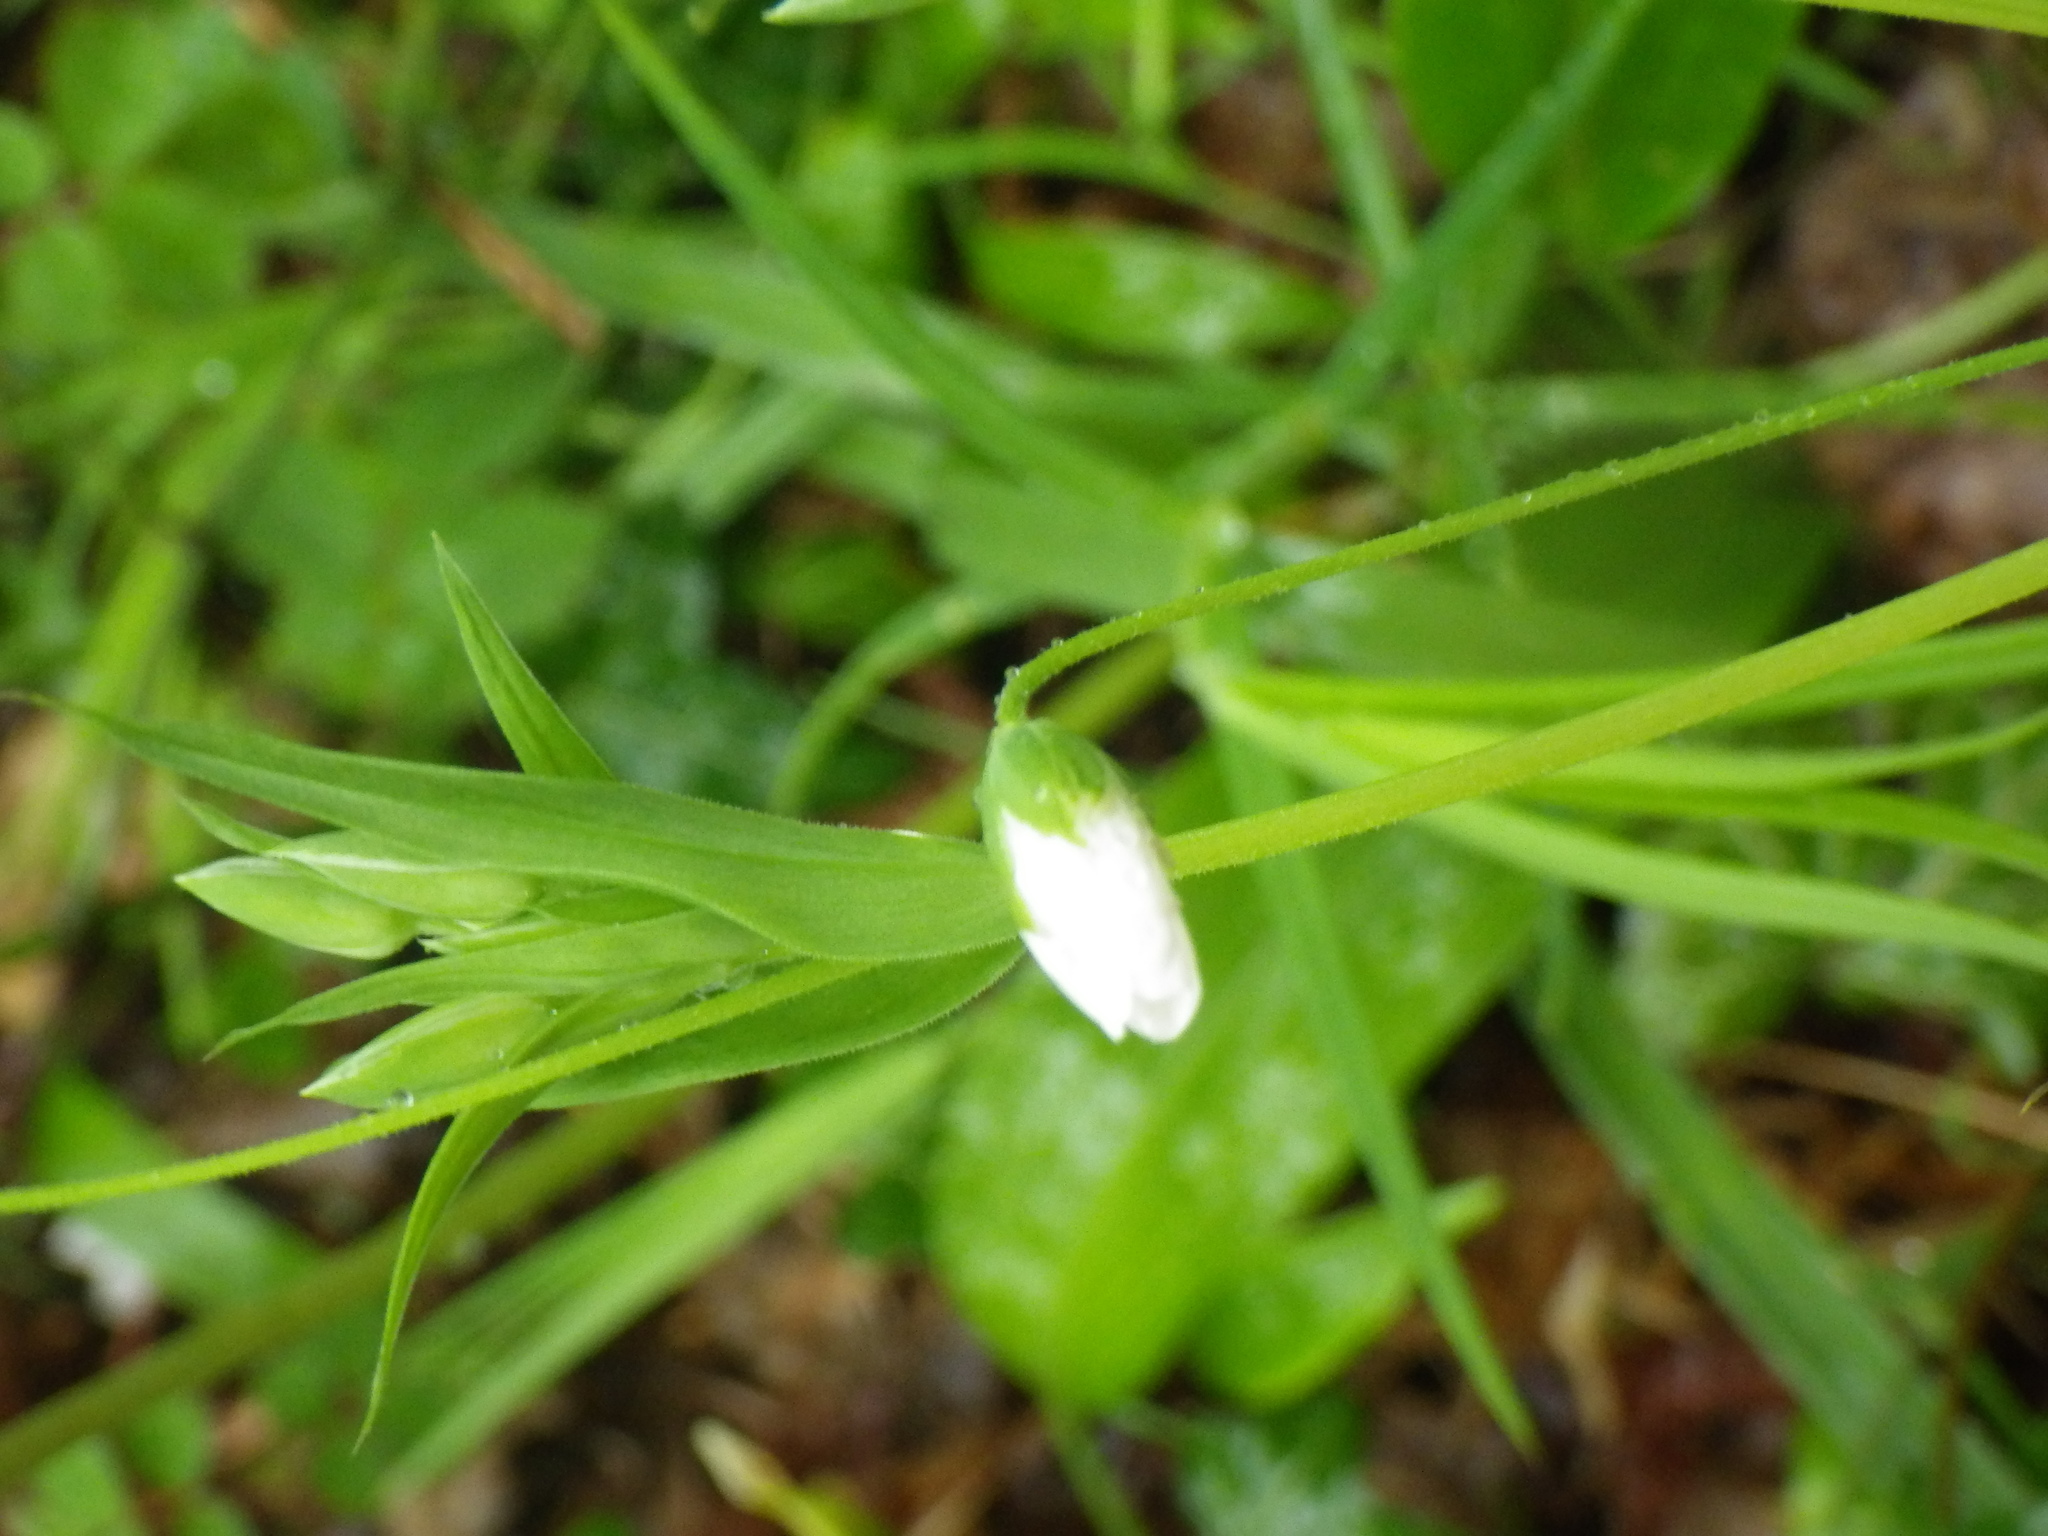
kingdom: Plantae
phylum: Tracheophyta
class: Magnoliopsida
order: Caryophyllales
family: Caryophyllaceae
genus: Rabelera
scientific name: Rabelera holostea
